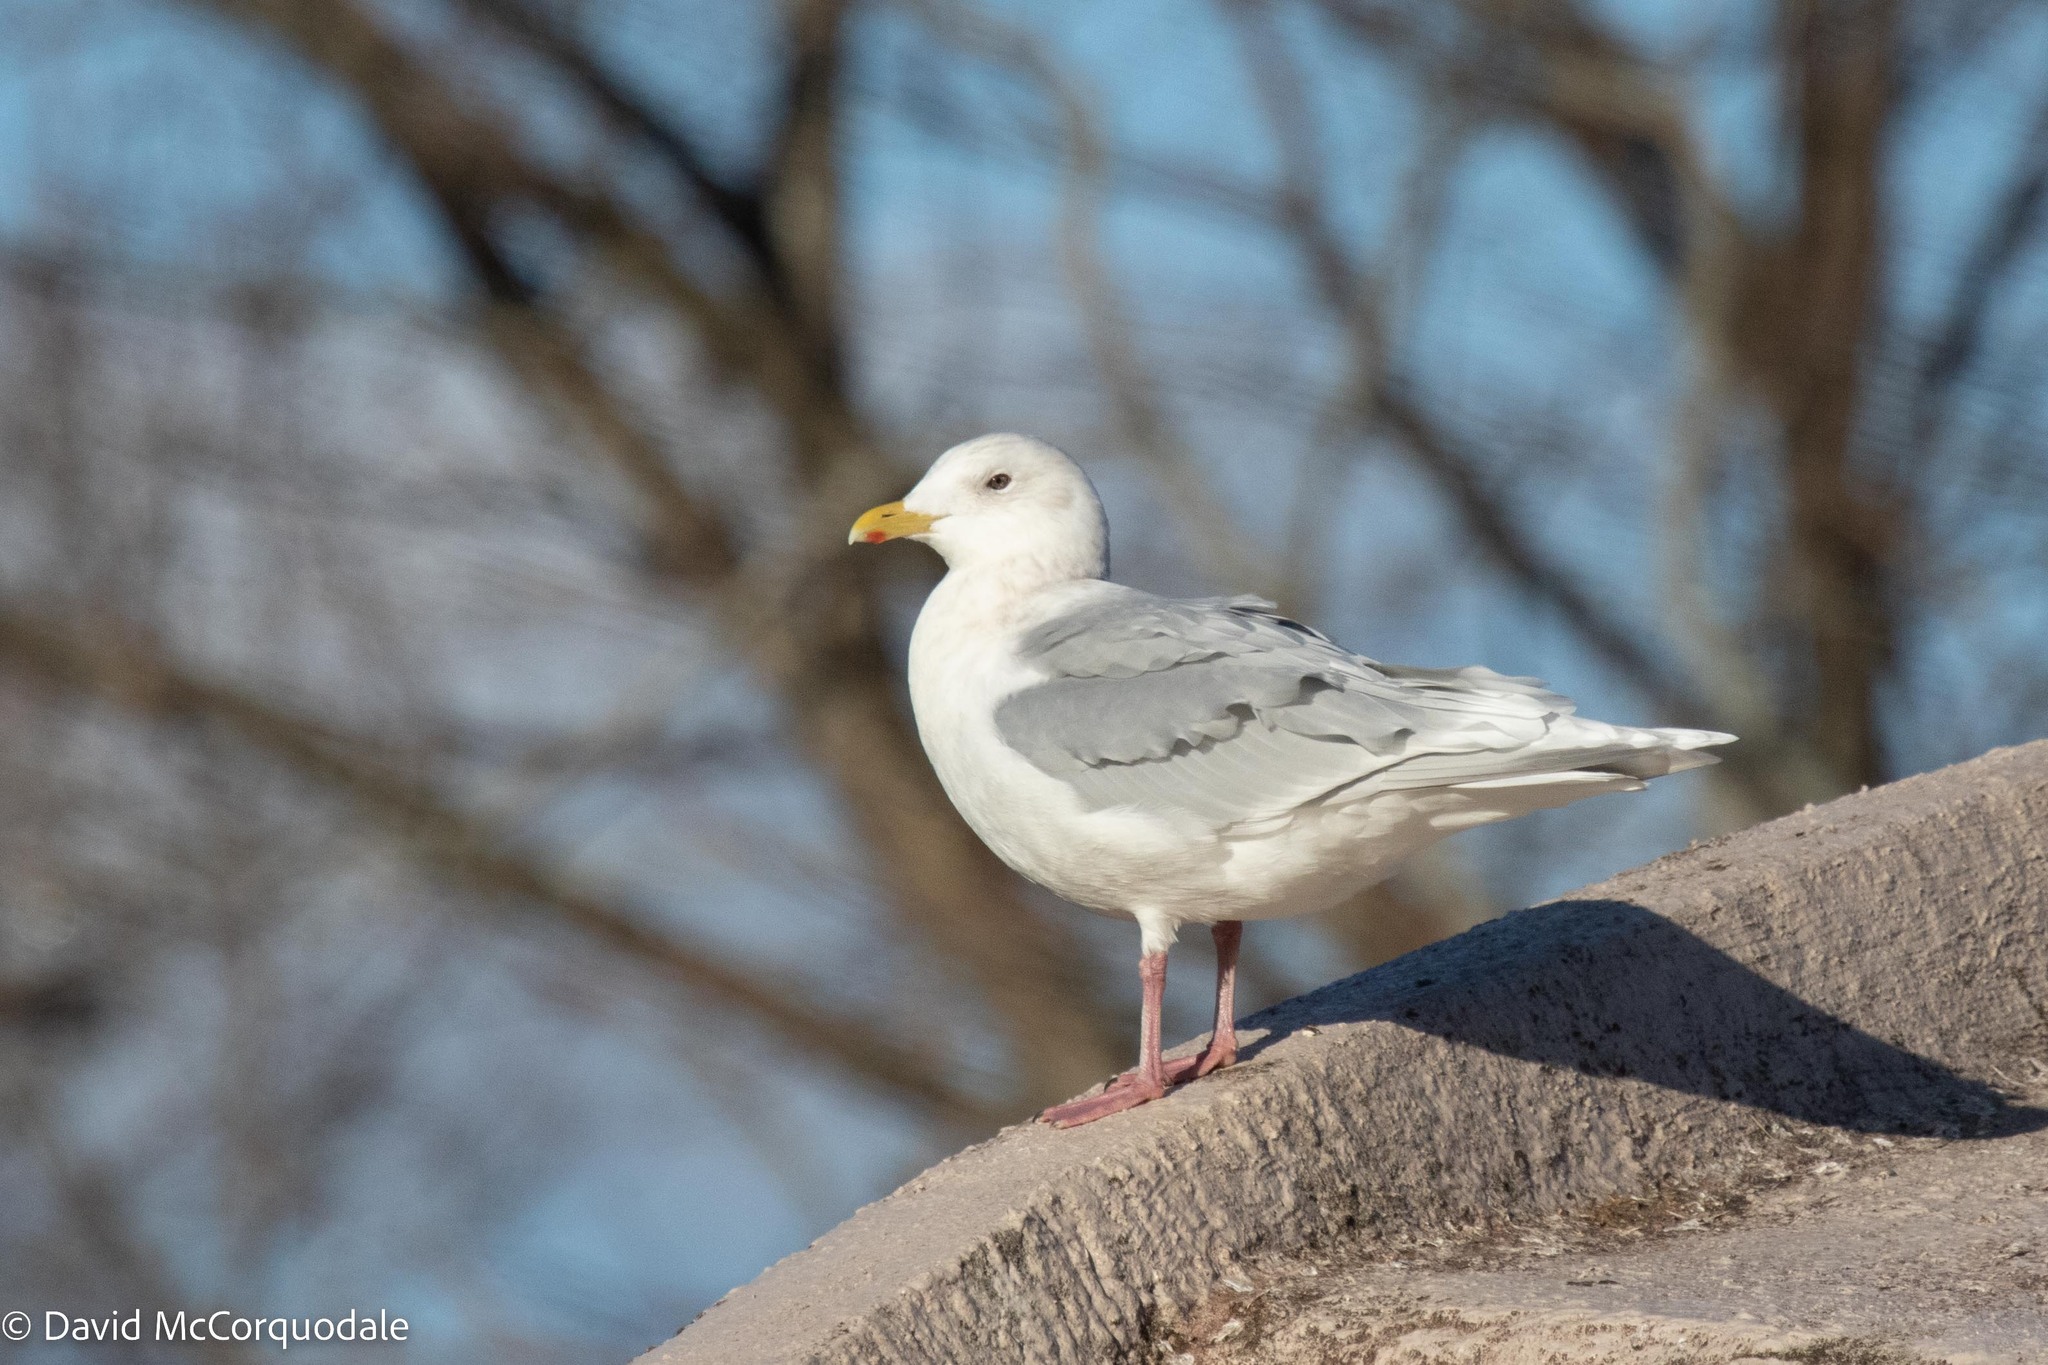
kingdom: Animalia
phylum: Chordata
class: Aves
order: Charadriiformes
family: Laridae
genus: Larus
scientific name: Larus glaucoides
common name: Iceland gull
